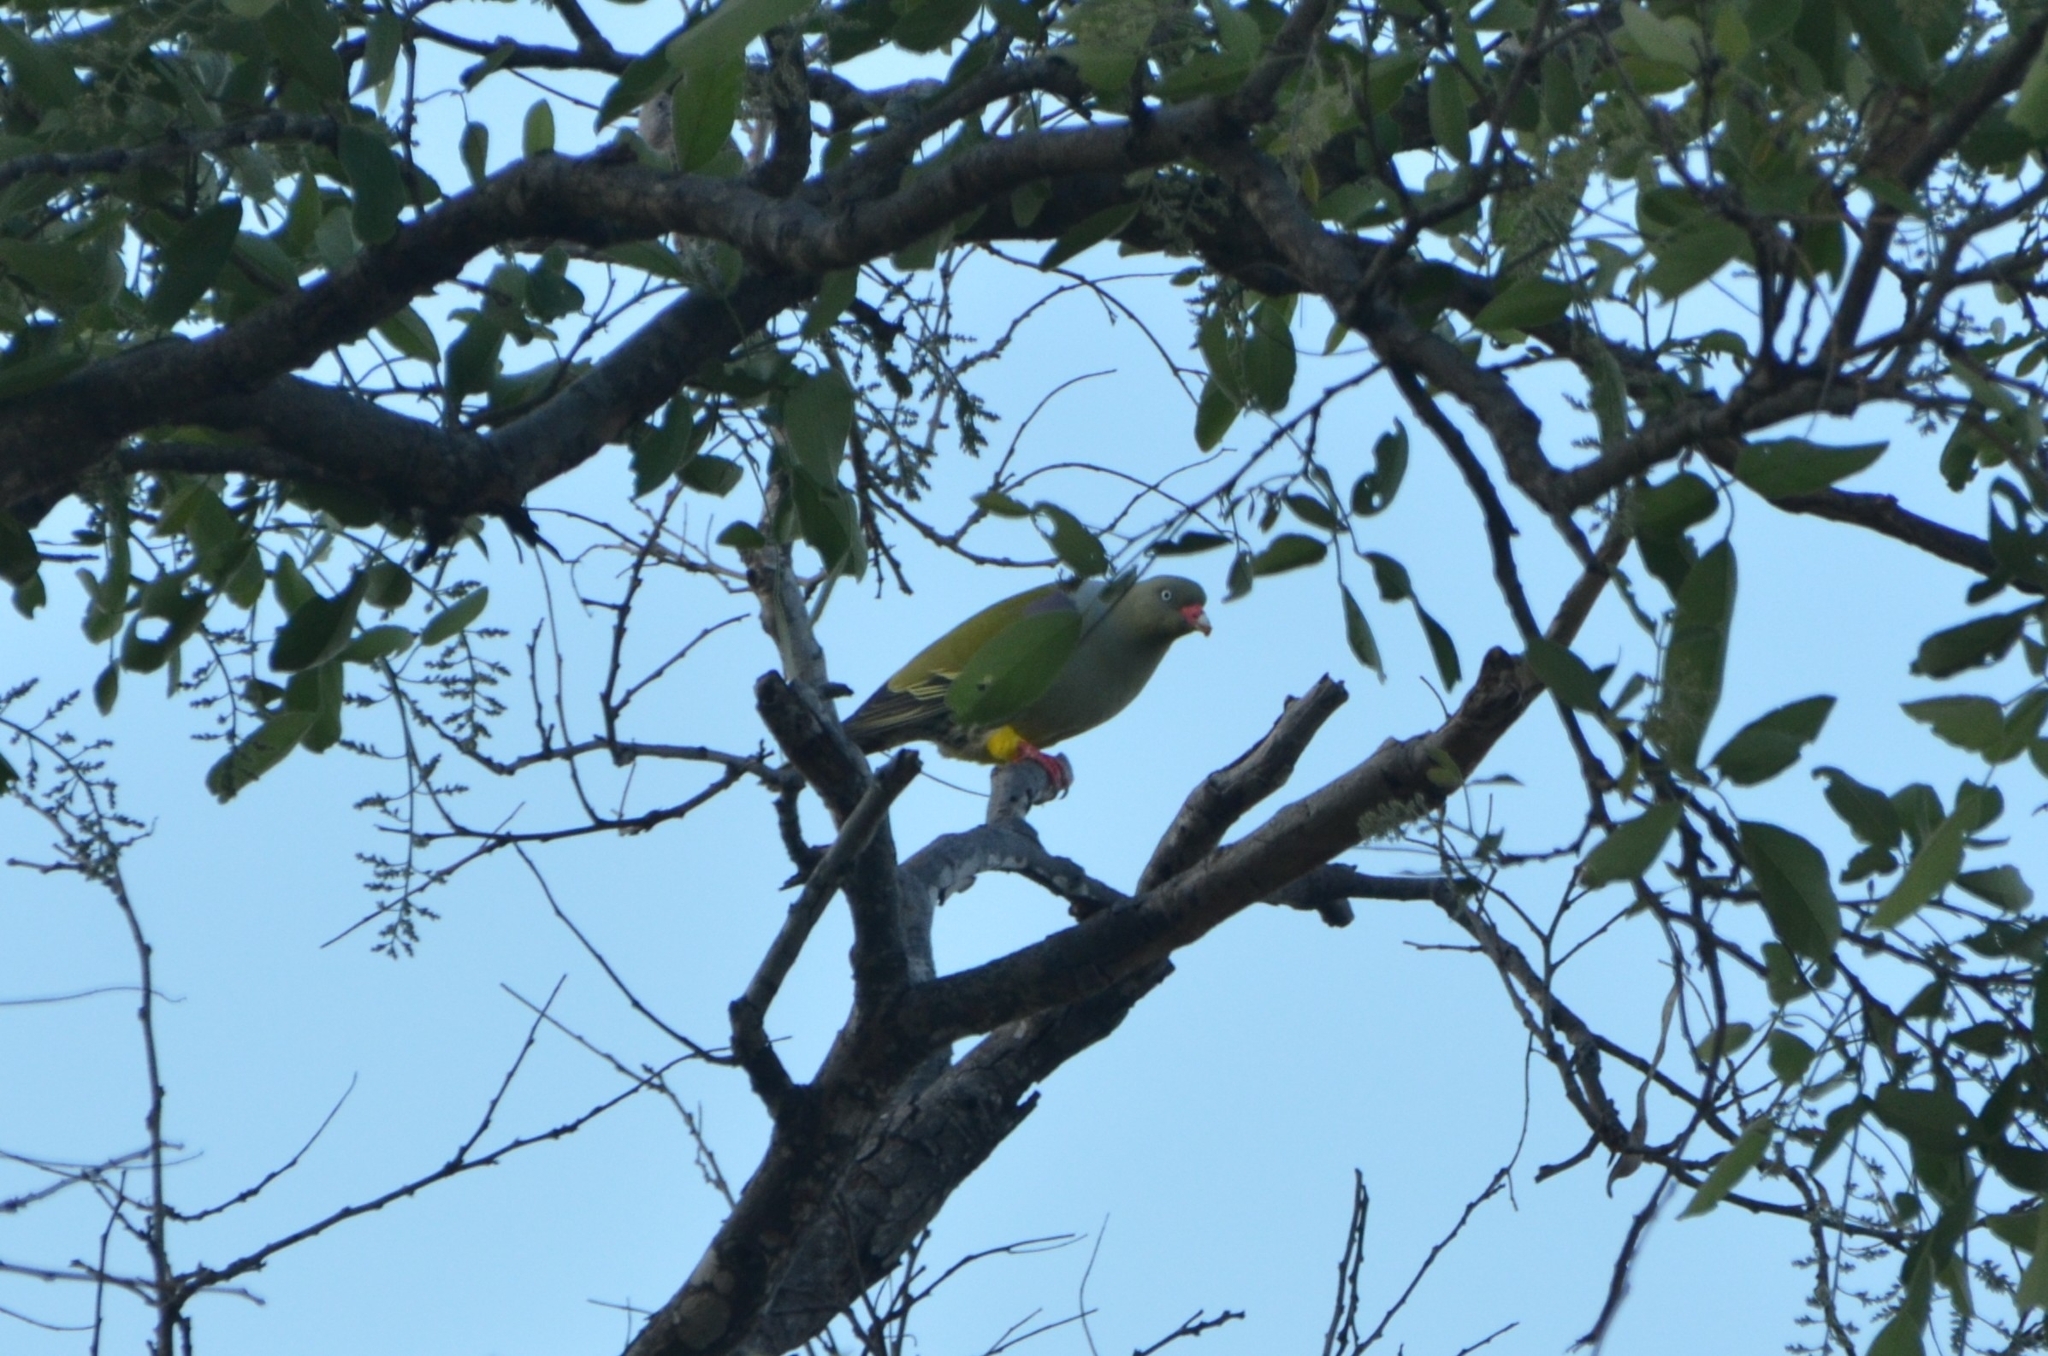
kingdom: Animalia
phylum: Chordata
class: Aves
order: Columbiformes
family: Columbidae
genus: Treron
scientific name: Treron calvus
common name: African green pigeon
